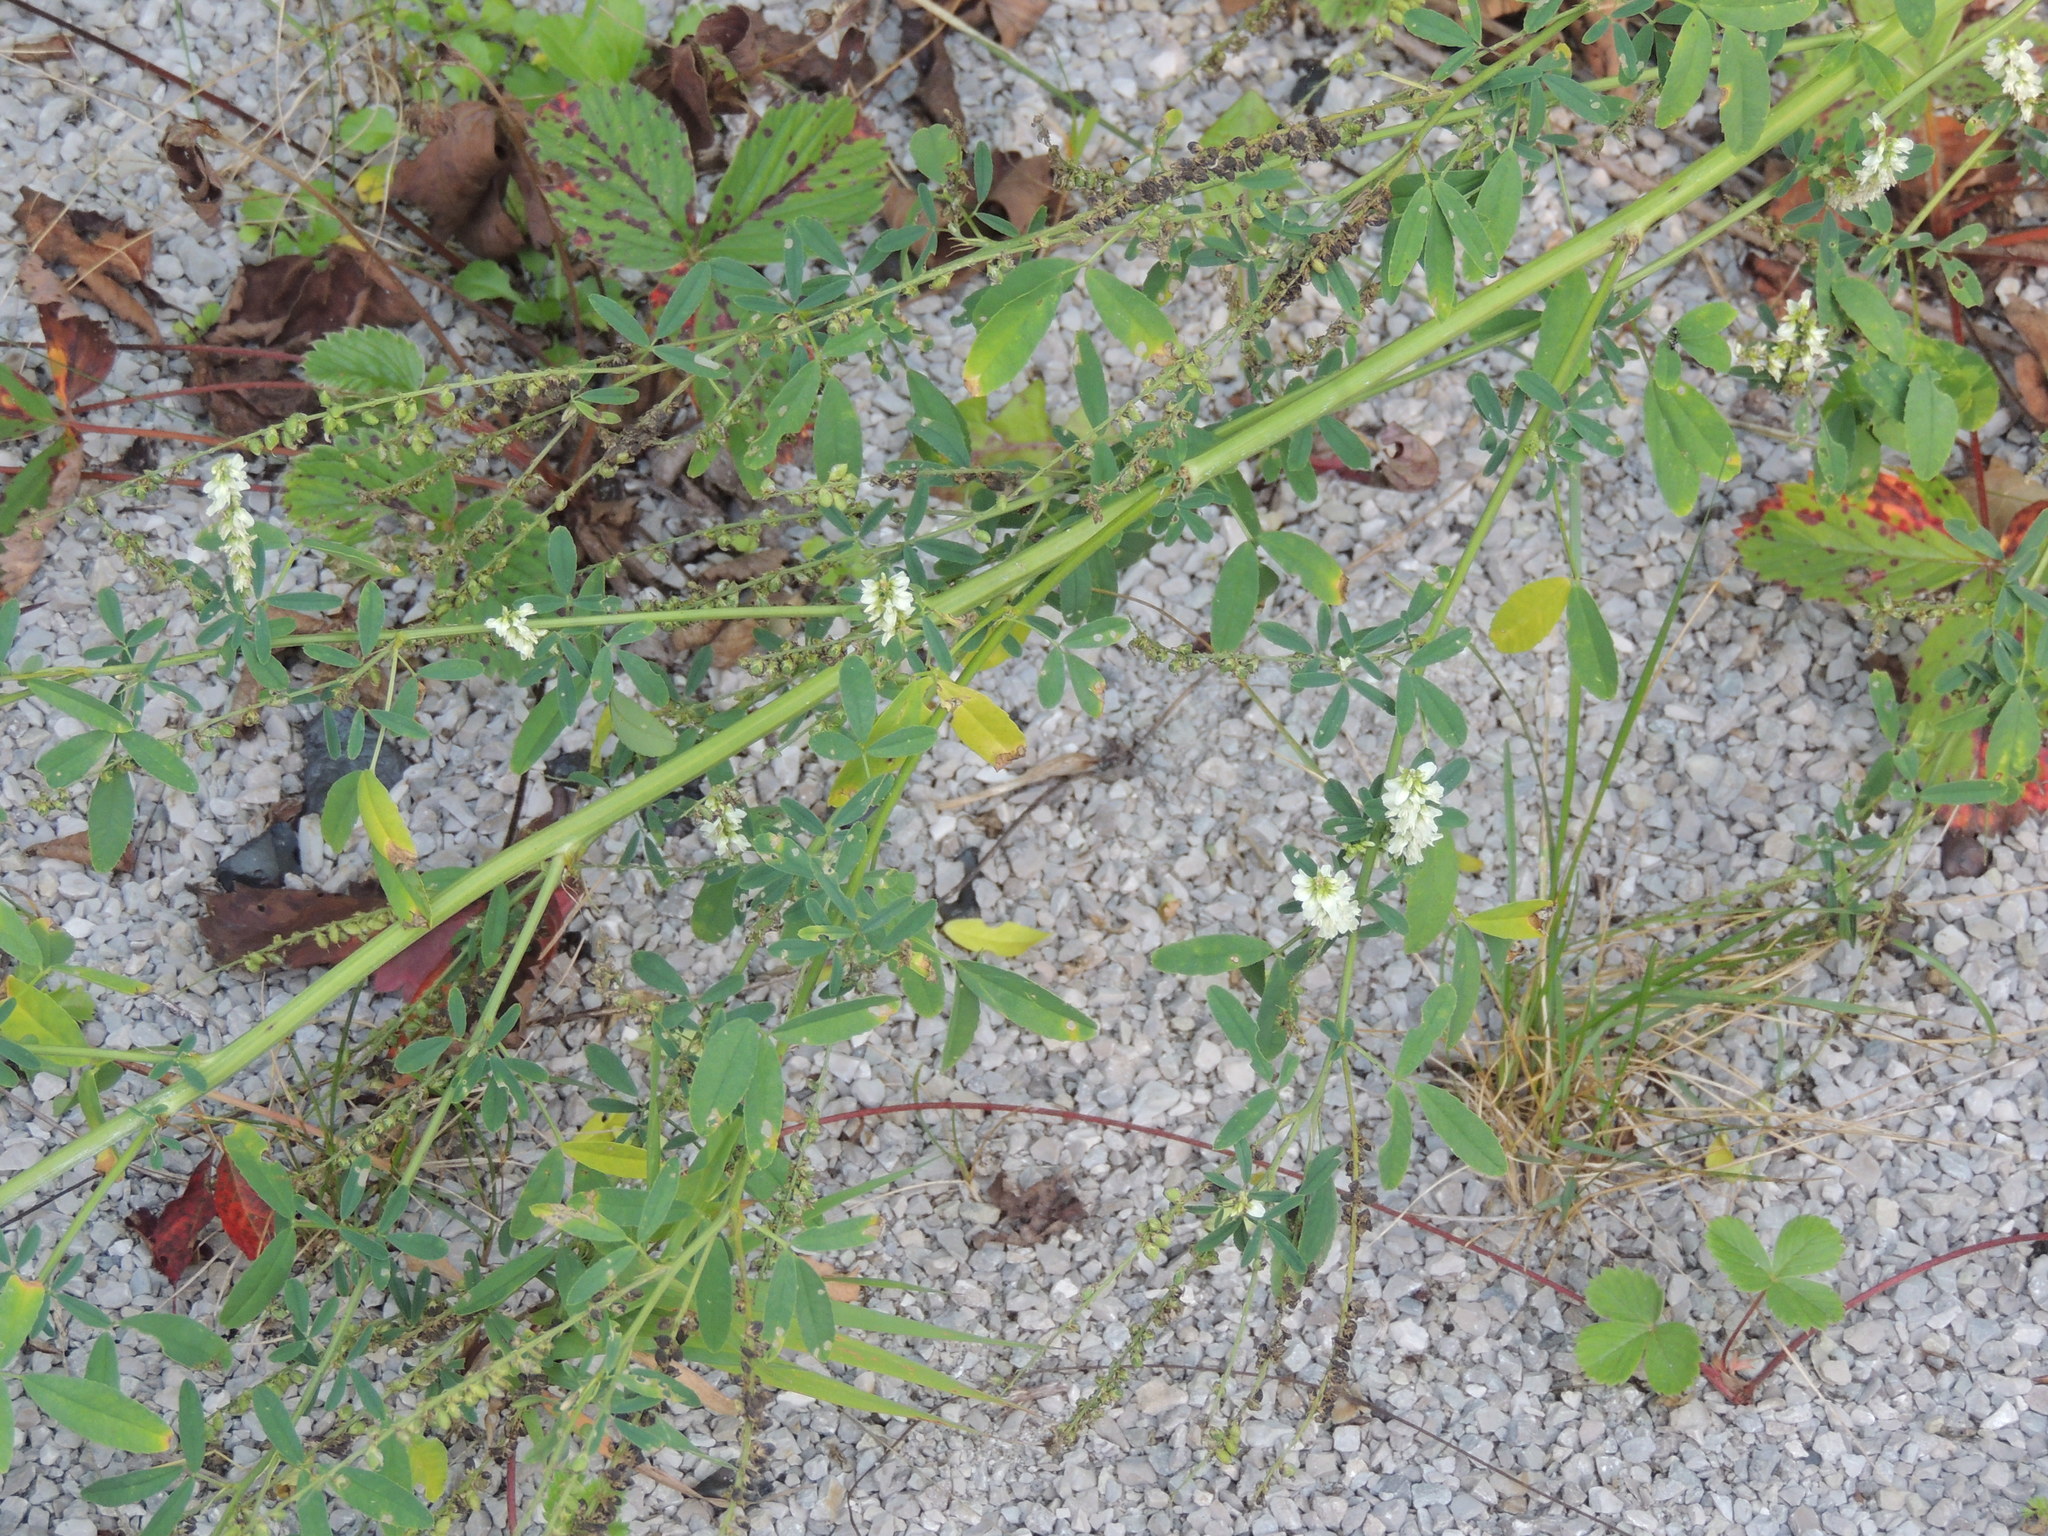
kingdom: Plantae
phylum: Tracheophyta
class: Magnoliopsida
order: Fabales
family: Fabaceae
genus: Melilotus
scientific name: Melilotus albus
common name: White melilot
